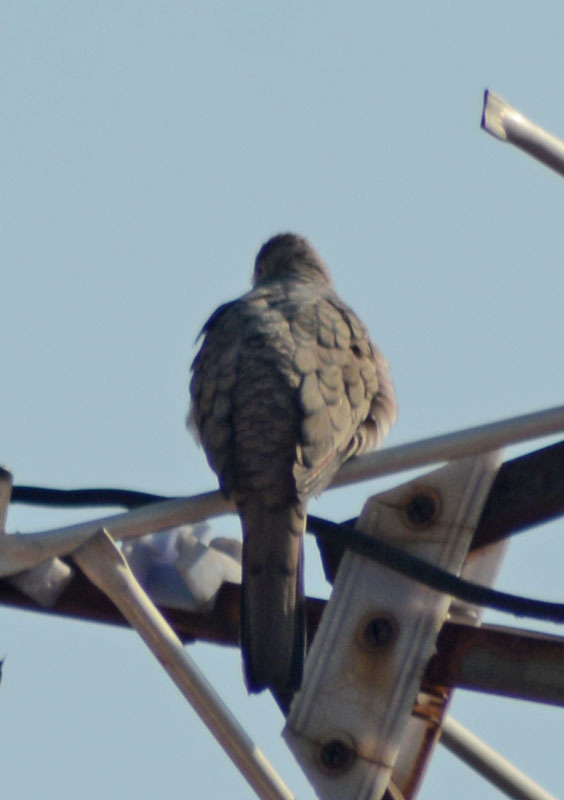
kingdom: Animalia
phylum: Chordata
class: Aves
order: Columbiformes
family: Columbidae
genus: Columbina
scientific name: Columbina inca
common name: Inca dove
